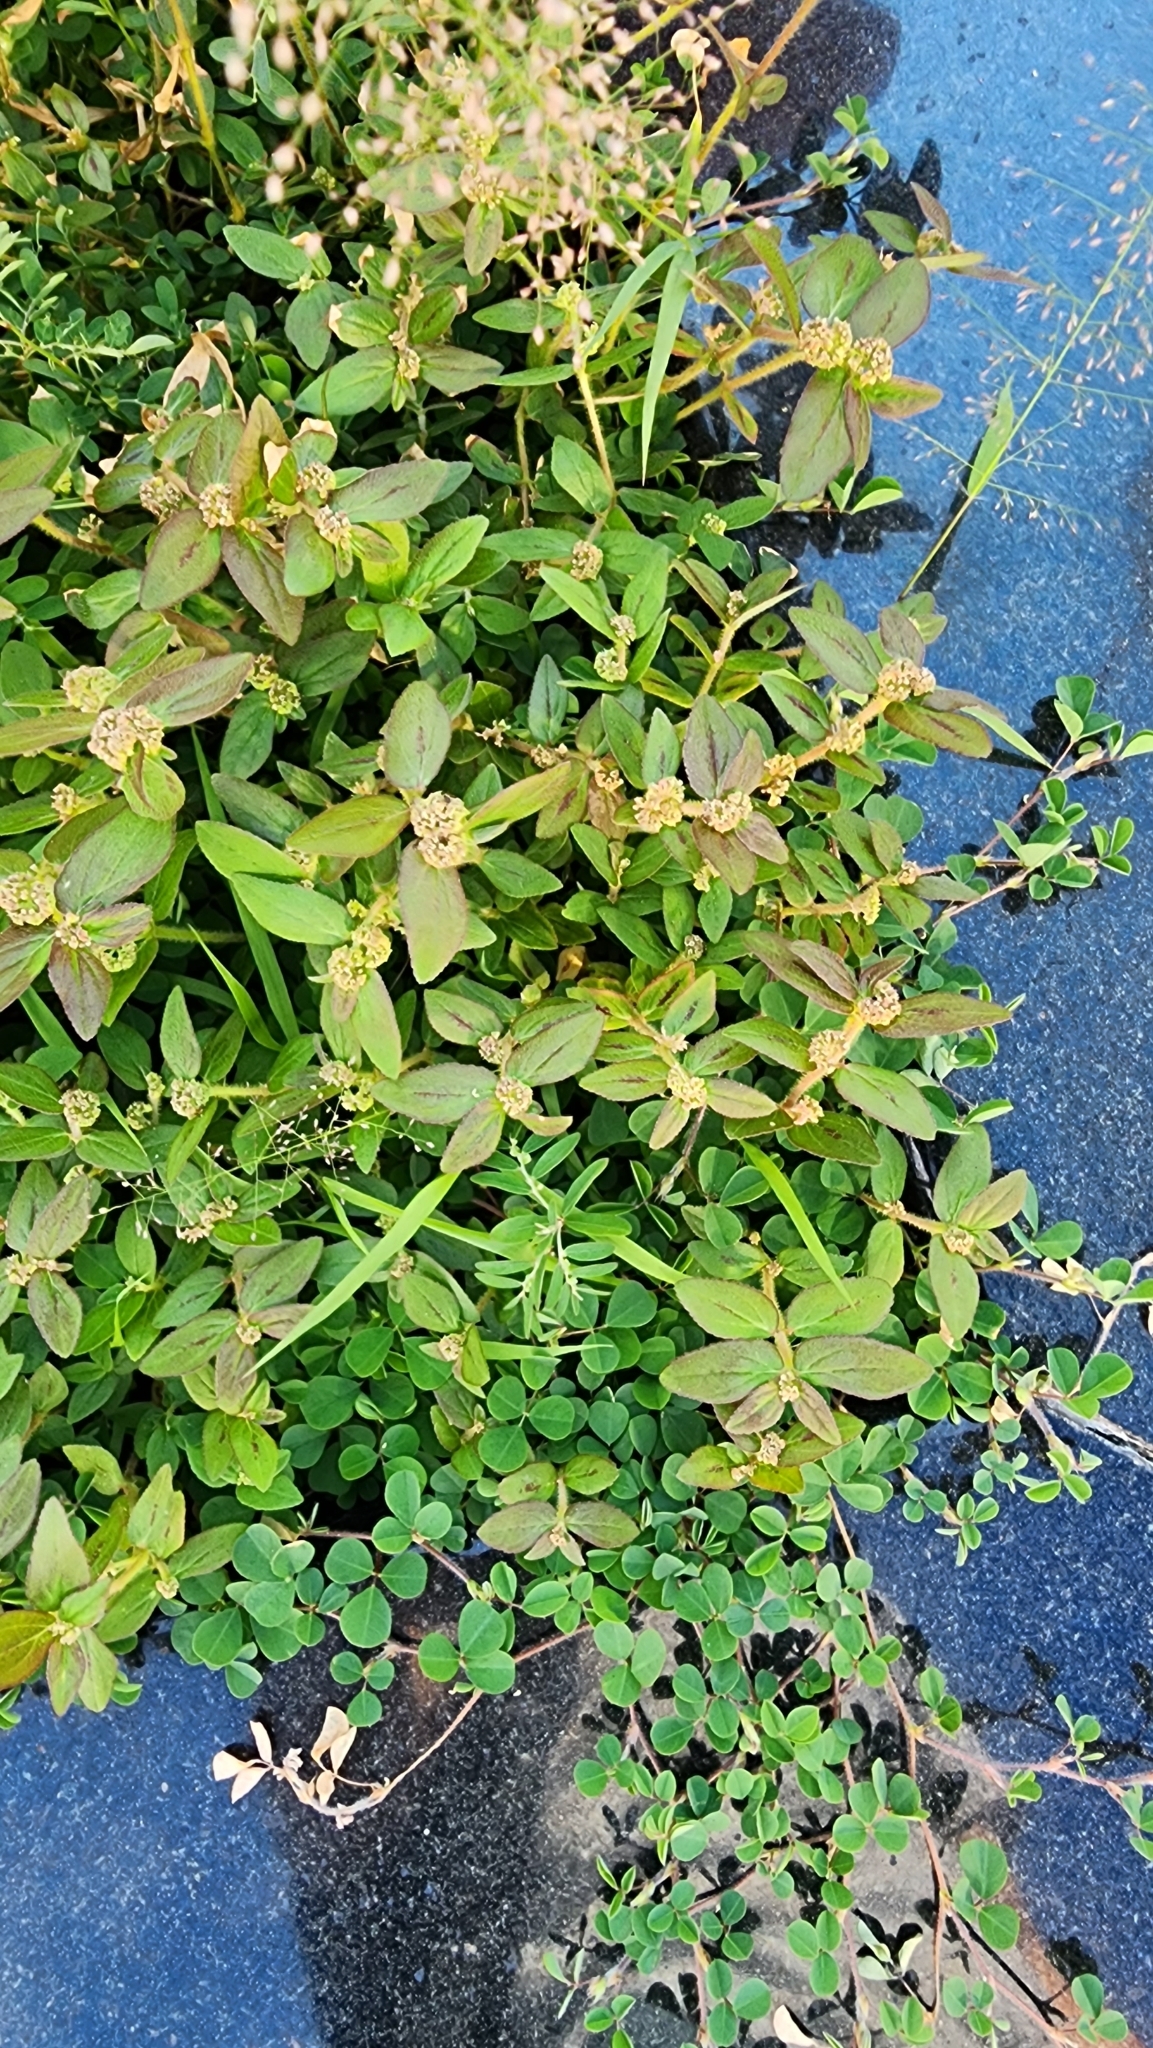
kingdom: Plantae
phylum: Tracheophyta
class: Magnoliopsida
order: Malpighiales
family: Euphorbiaceae
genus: Euphorbia
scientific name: Euphorbia hirta
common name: Pillpod sandmat
